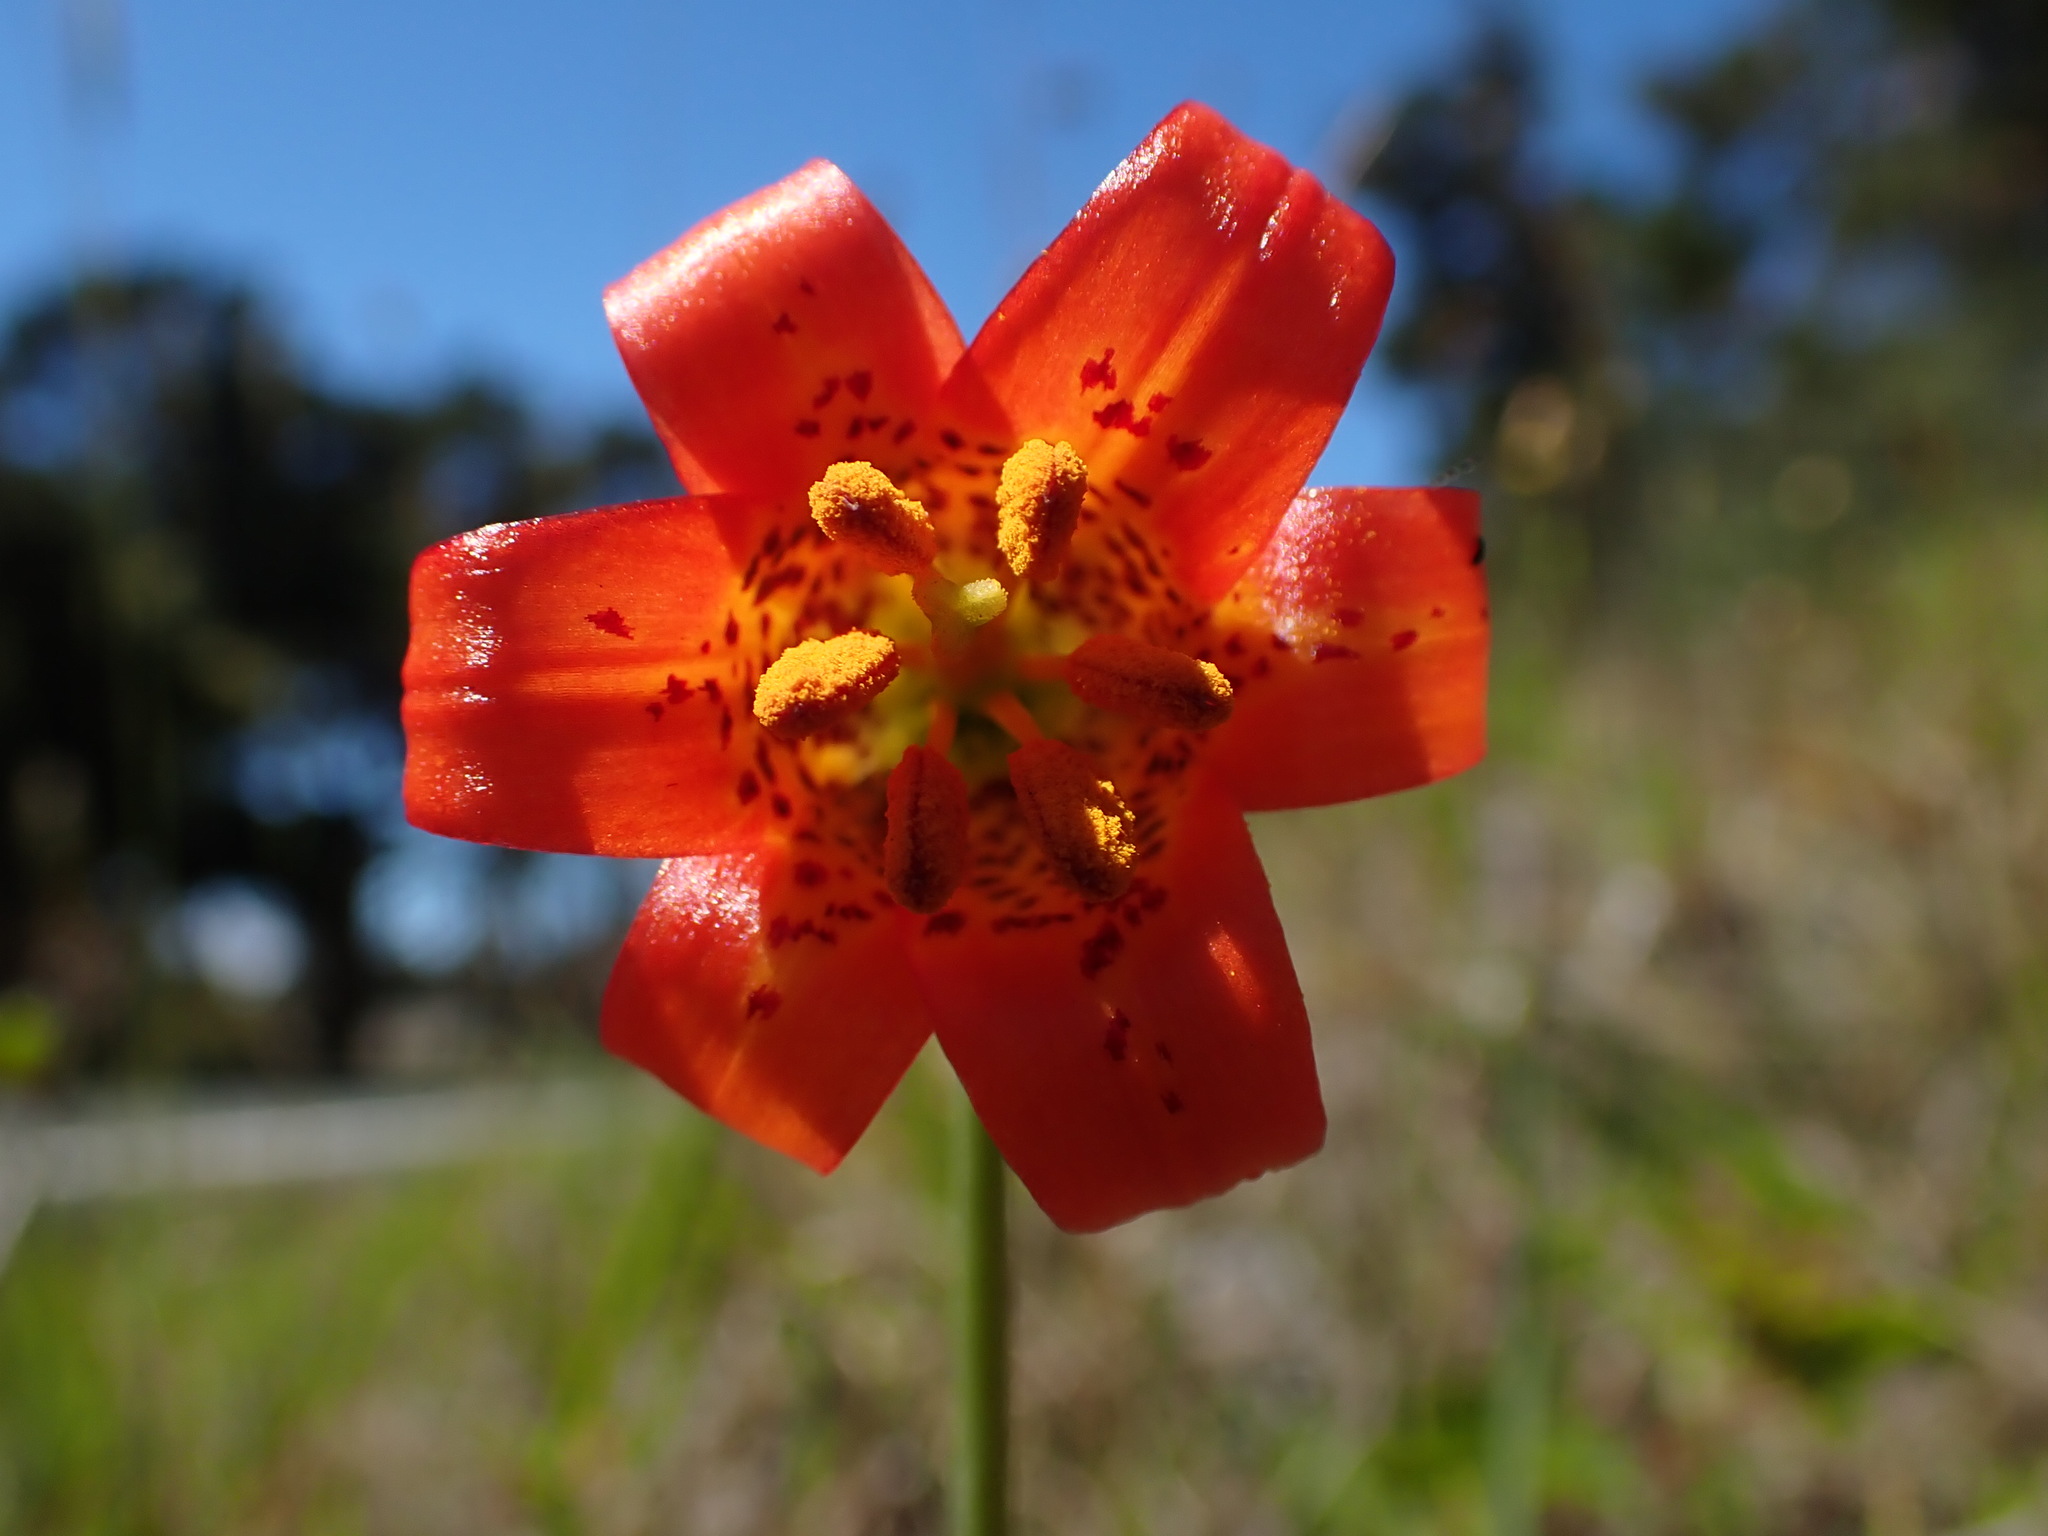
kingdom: Plantae
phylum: Tracheophyta
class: Liliopsida
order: Liliales
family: Liliaceae
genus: Lilium
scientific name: Lilium maritimum
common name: Coastal lily
